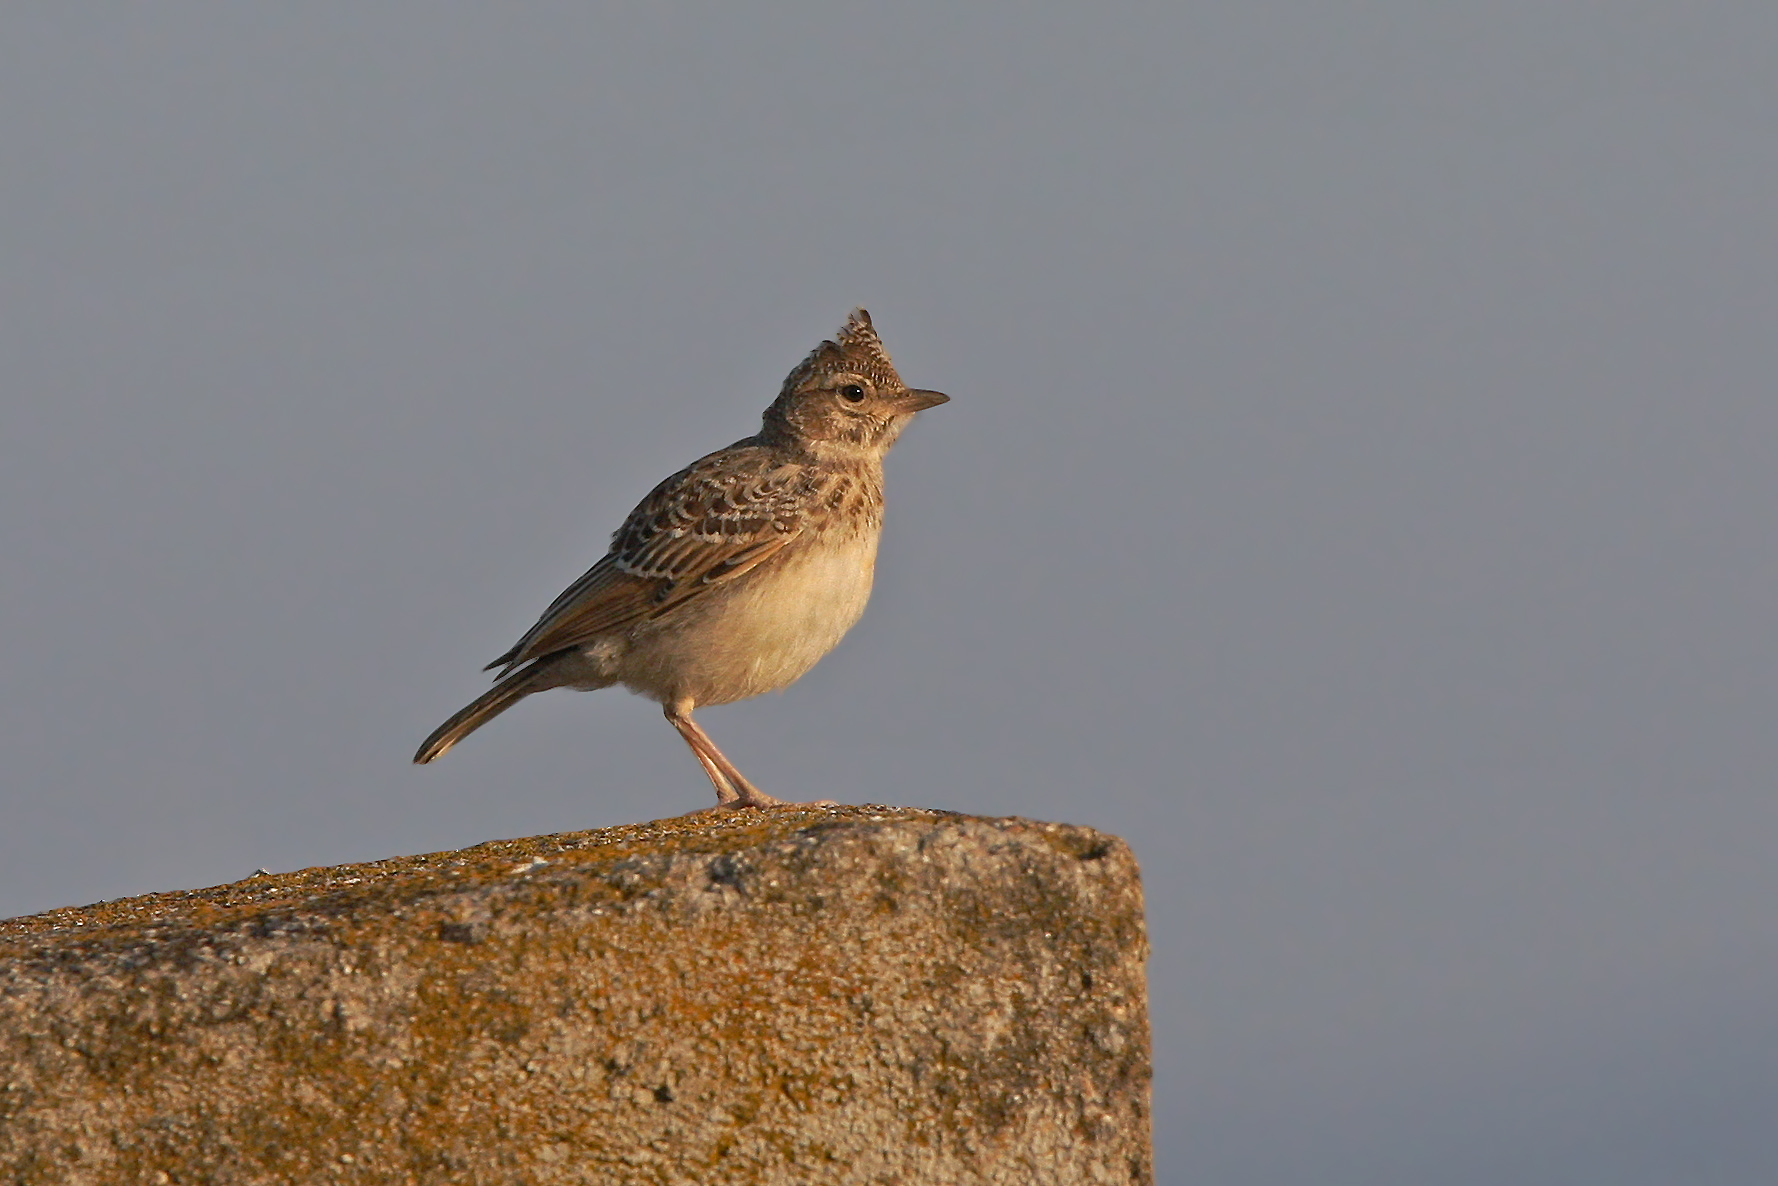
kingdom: Animalia
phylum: Chordata
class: Aves
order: Passeriformes
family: Alaudidae
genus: Galerida
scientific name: Galerida theklae
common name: Thekla lark
